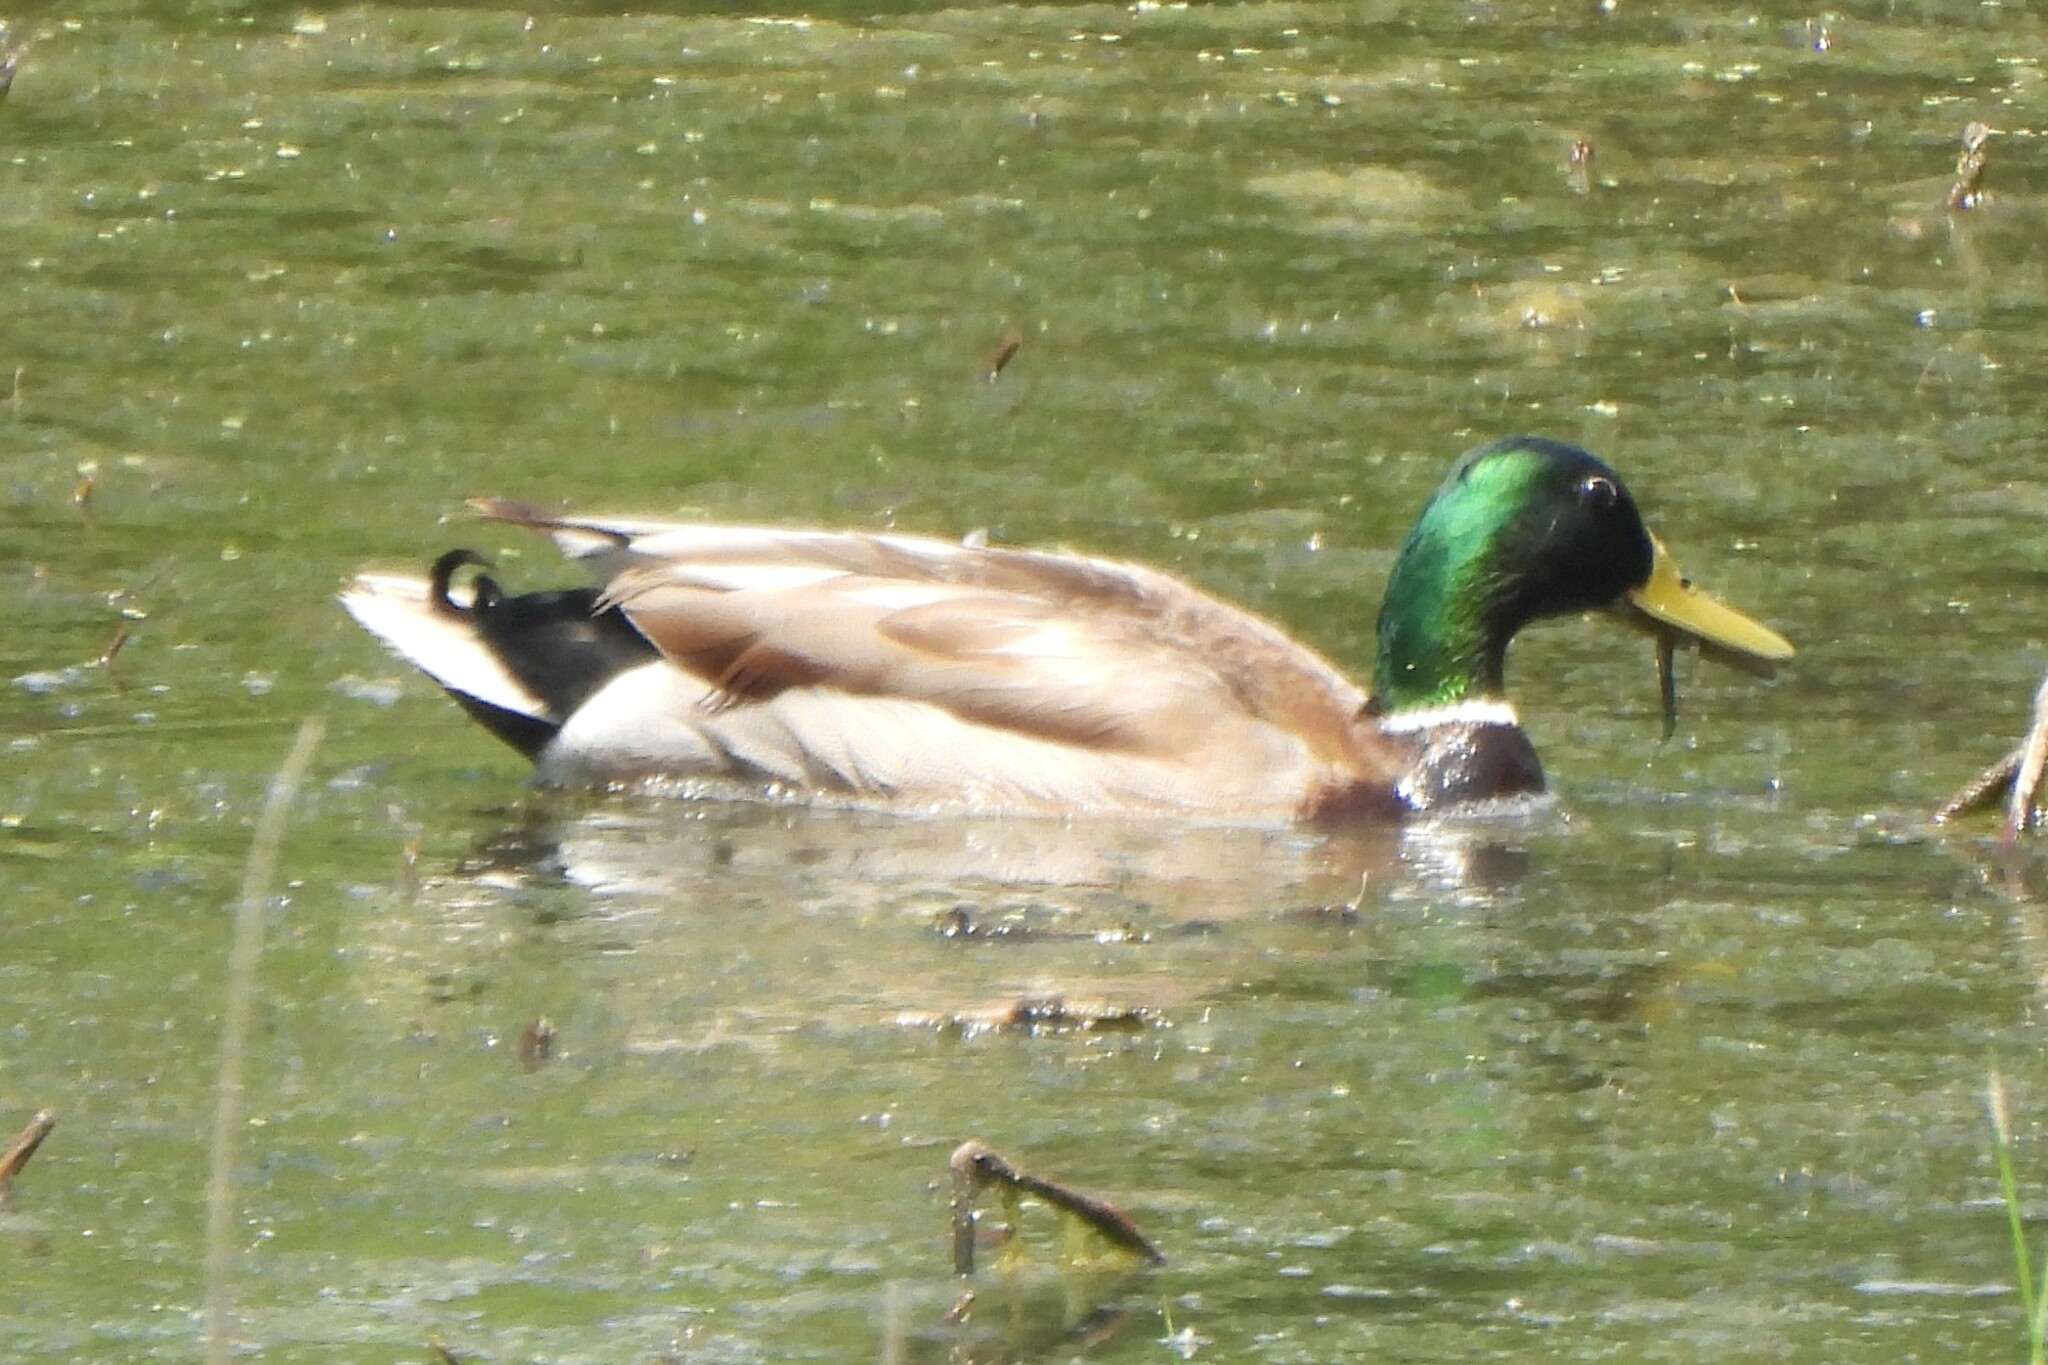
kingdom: Animalia
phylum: Chordata
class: Aves
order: Anseriformes
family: Anatidae
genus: Anas
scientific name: Anas platyrhynchos
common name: Mallard
